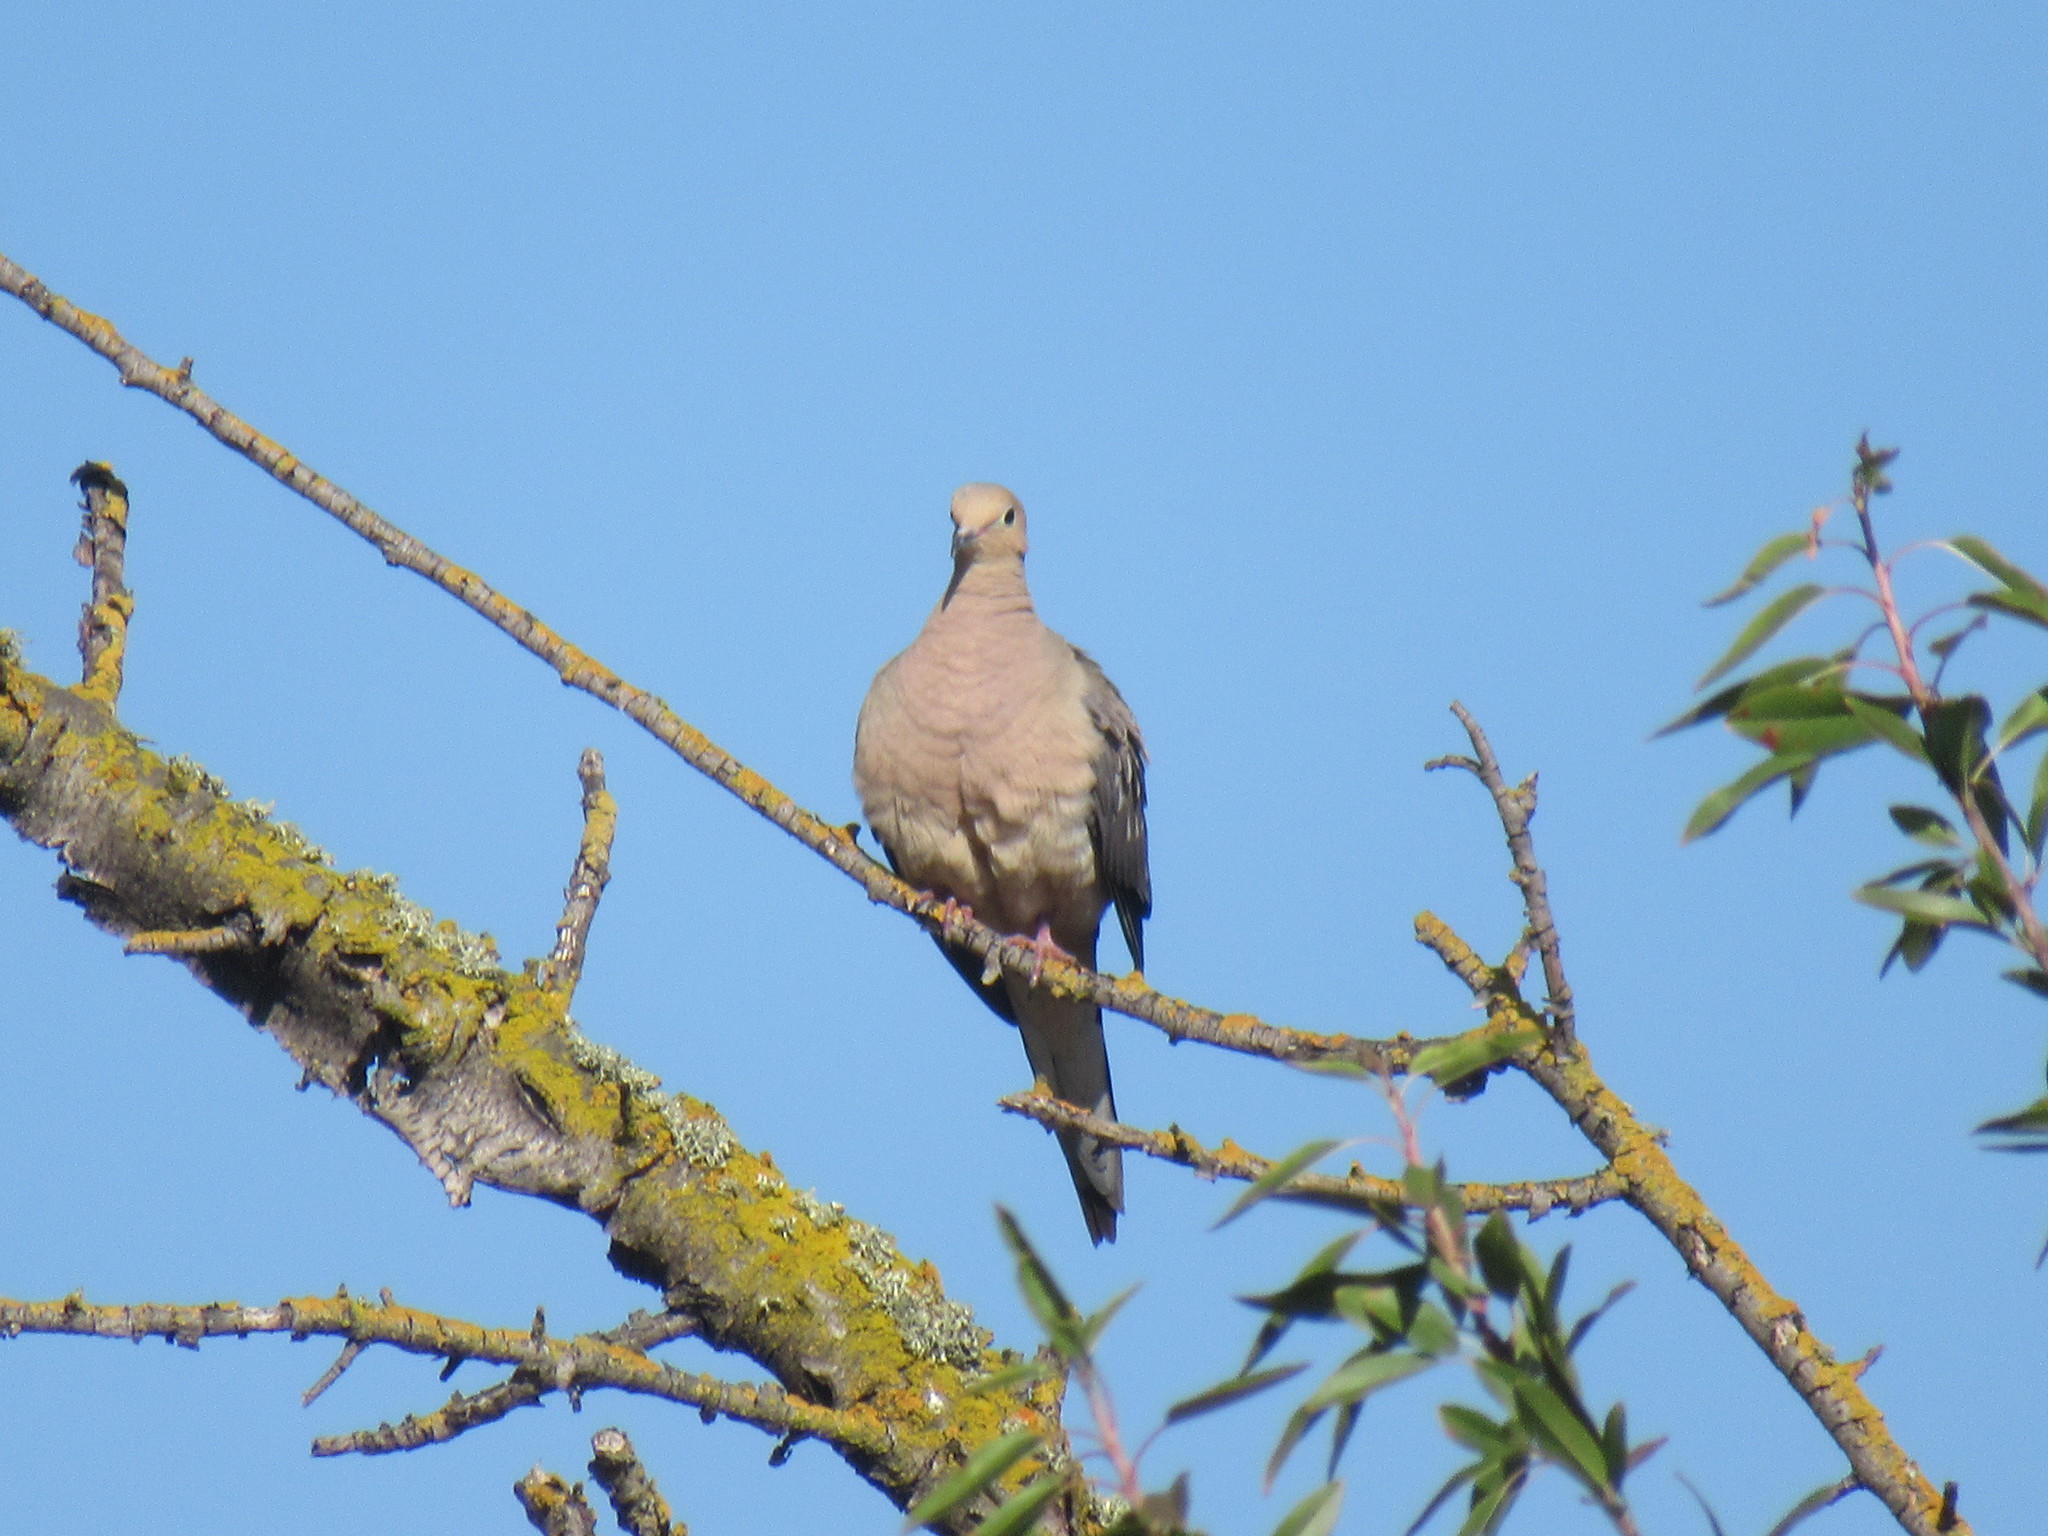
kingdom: Animalia
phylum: Chordata
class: Aves
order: Columbiformes
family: Columbidae
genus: Zenaida
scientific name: Zenaida macroura
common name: Mourning dove
